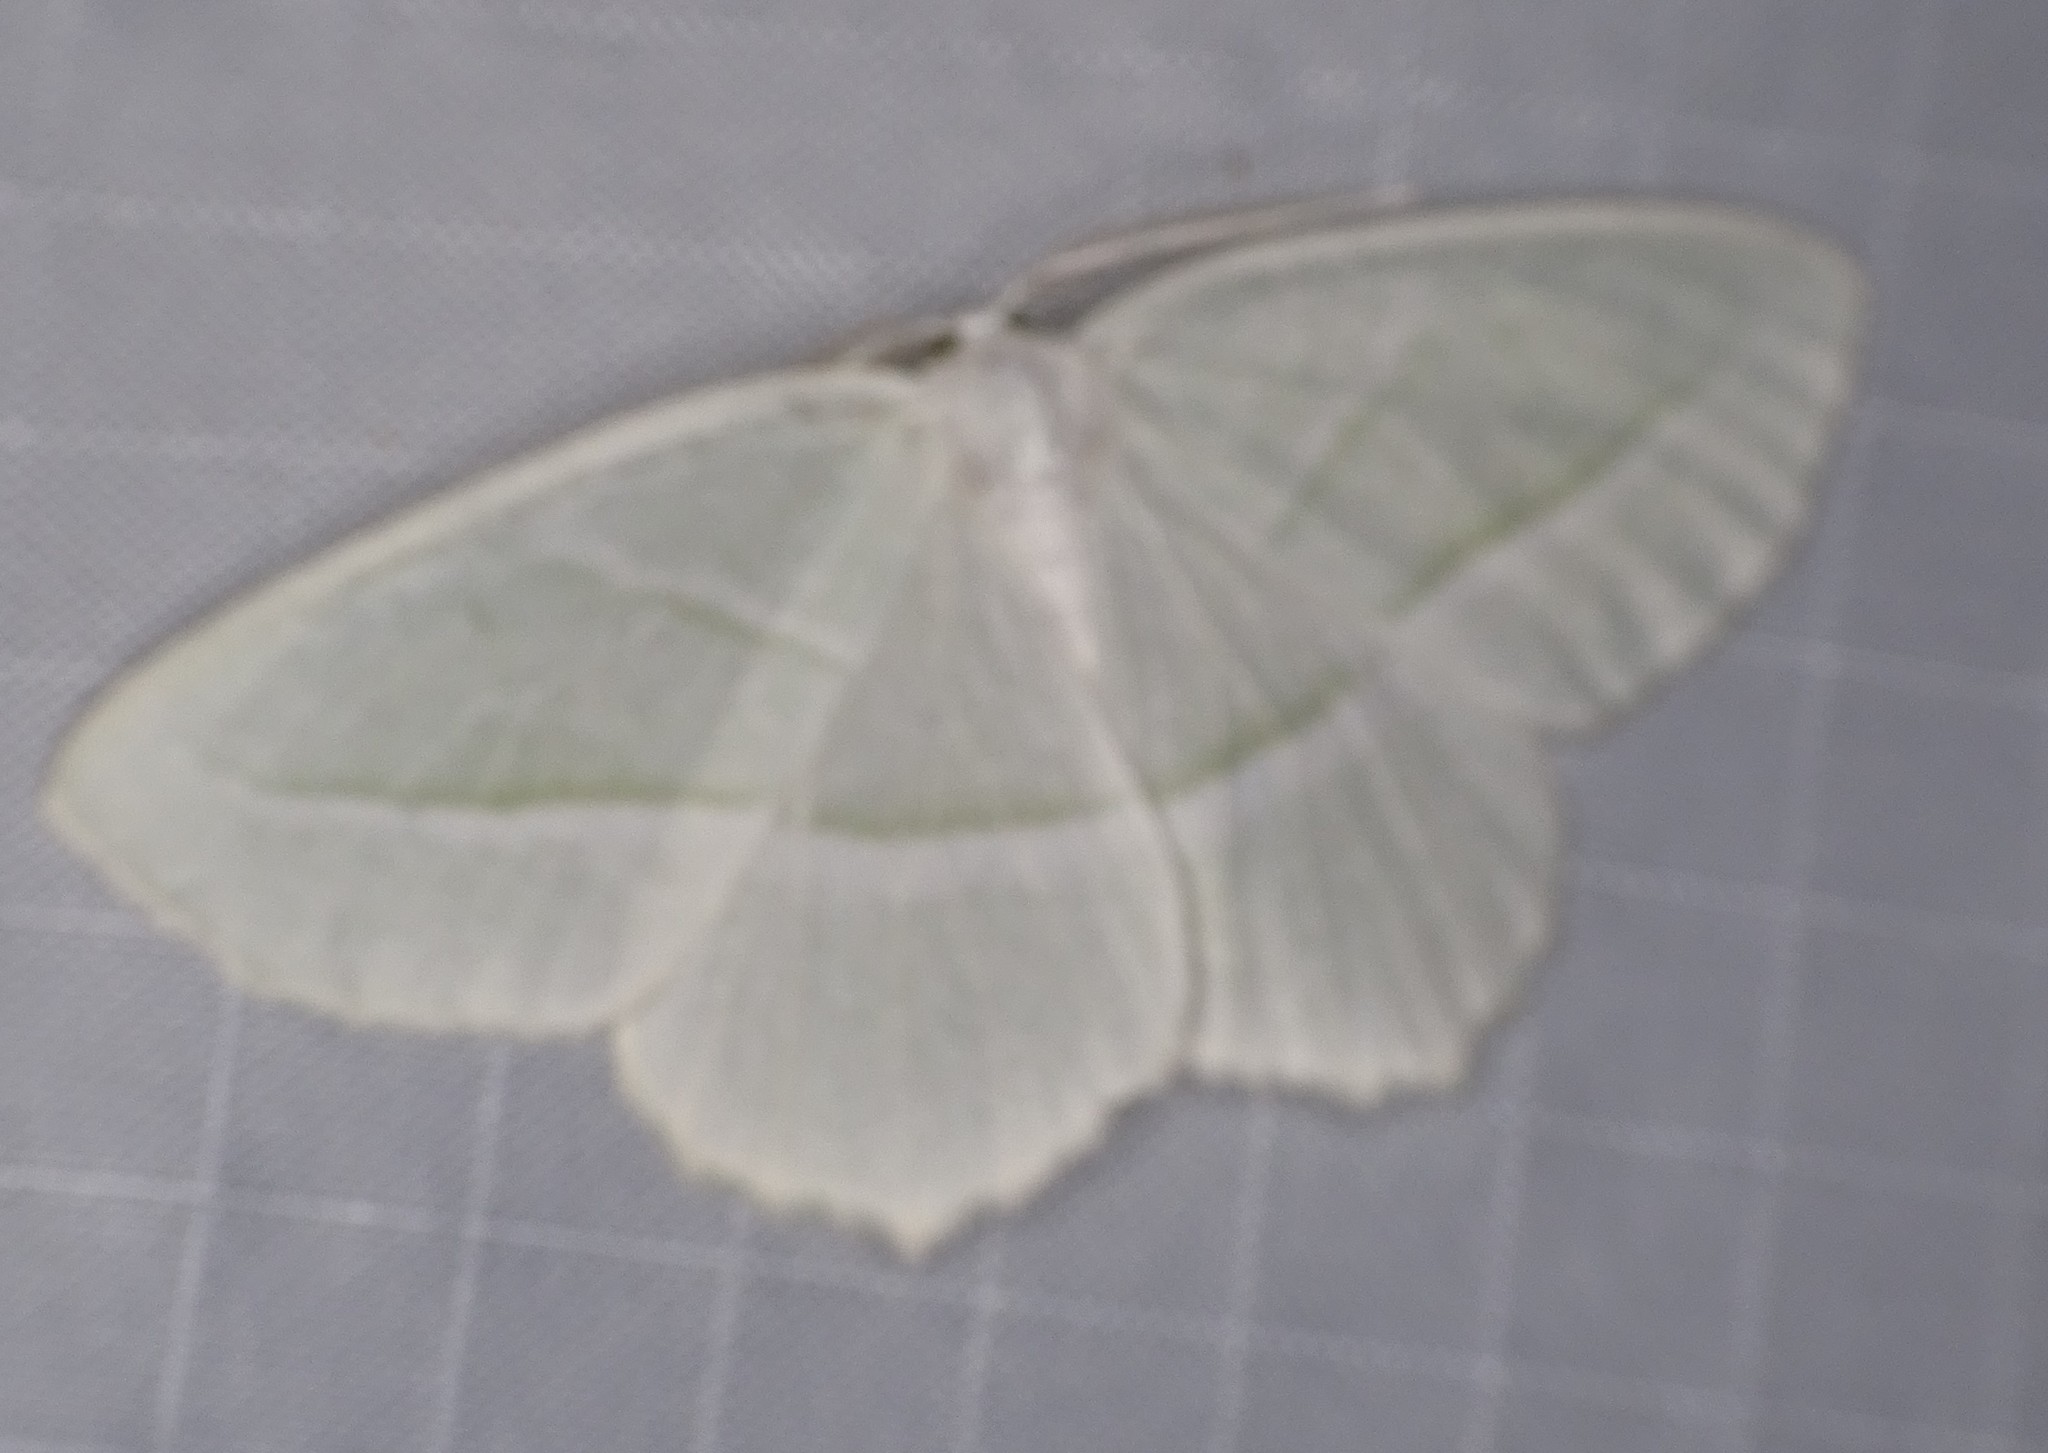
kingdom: Animalia
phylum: Arthropoda
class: Insecta
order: Lepidoptera
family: Geometridae
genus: Campaea
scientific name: Campaea perlata
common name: Fringed looper
